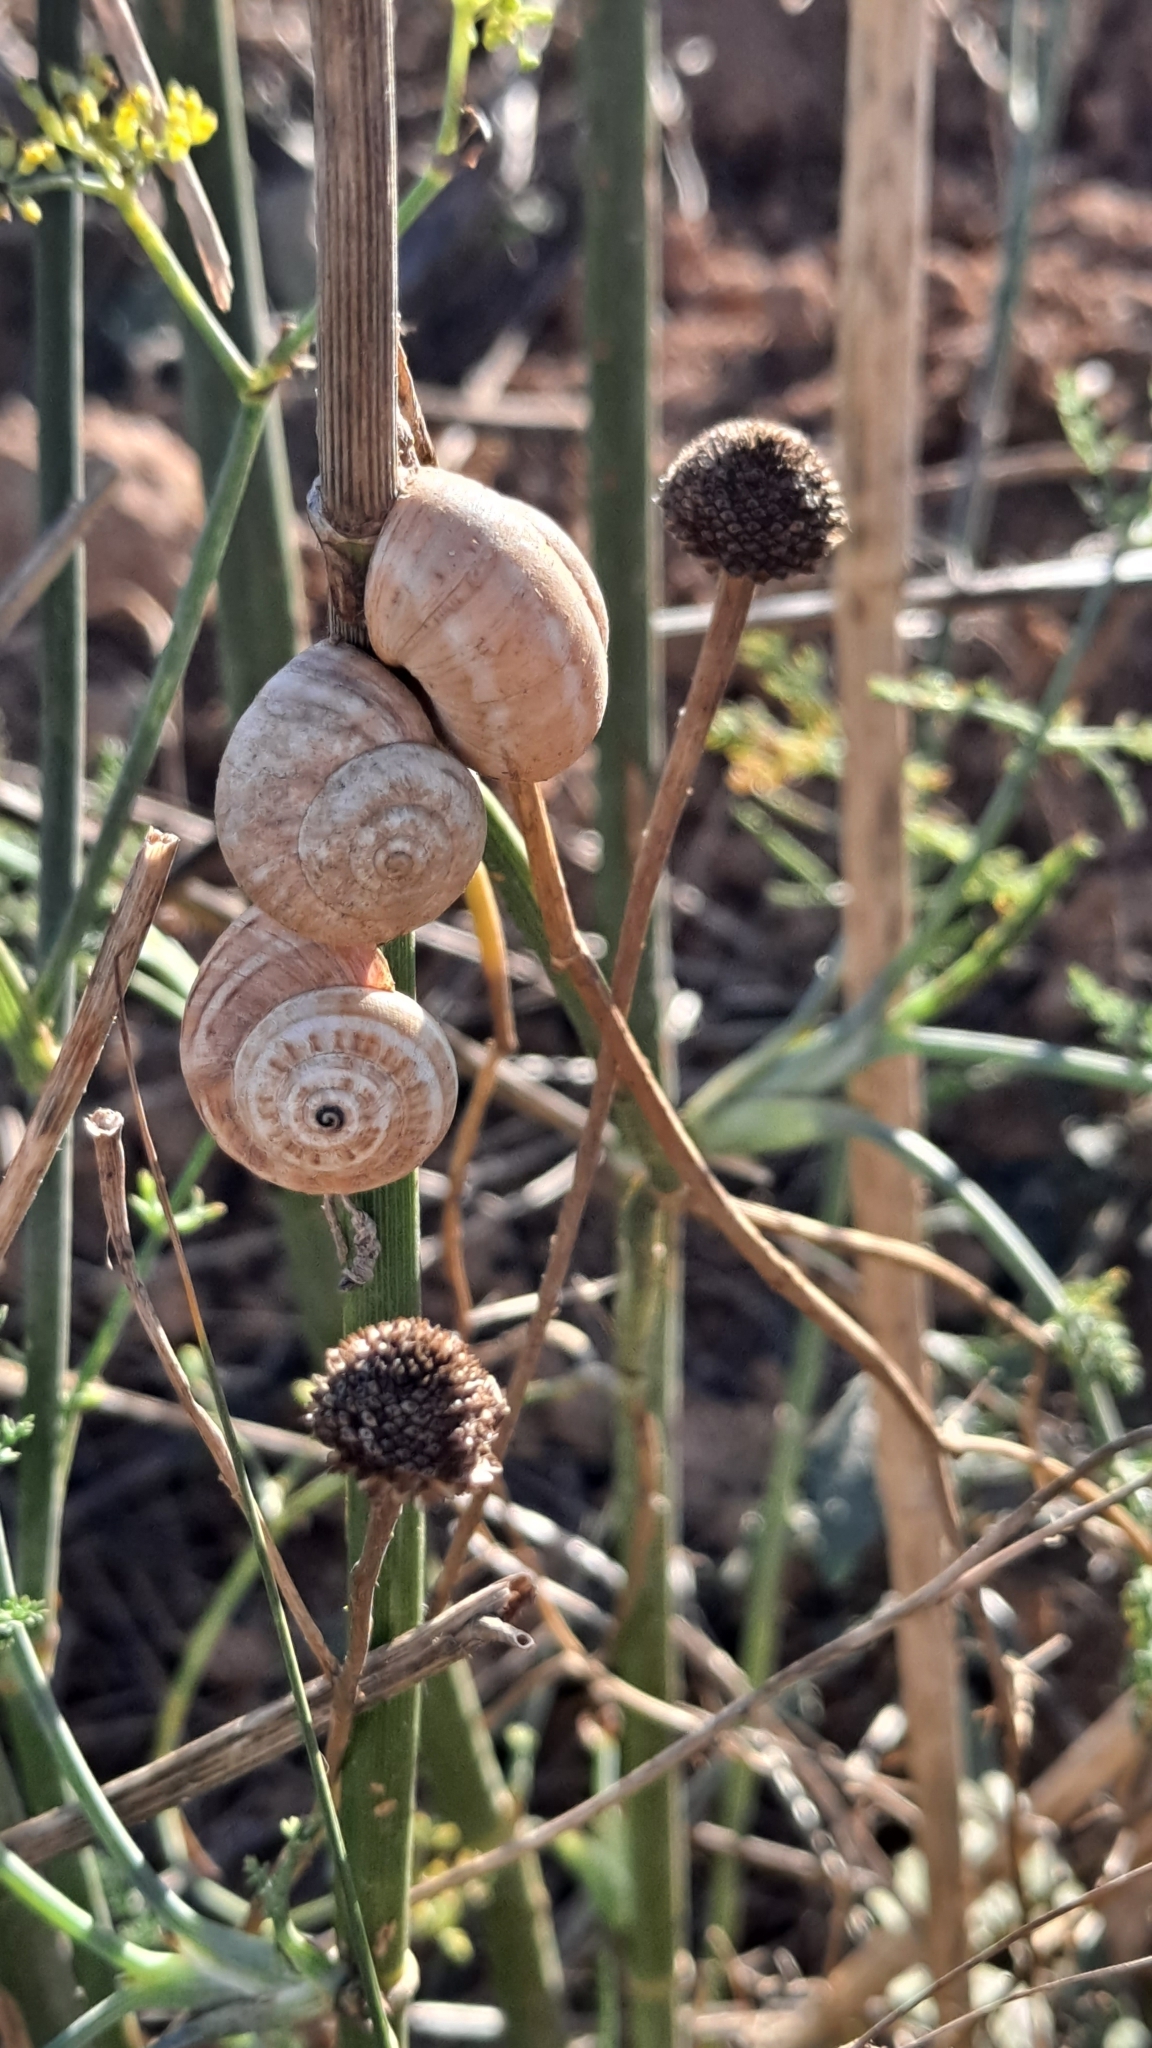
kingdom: Animalia
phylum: Mollusca
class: Gastropoda
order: Stylommatophora
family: Helicidae
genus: Theba
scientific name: Theba pisana
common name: White snail
